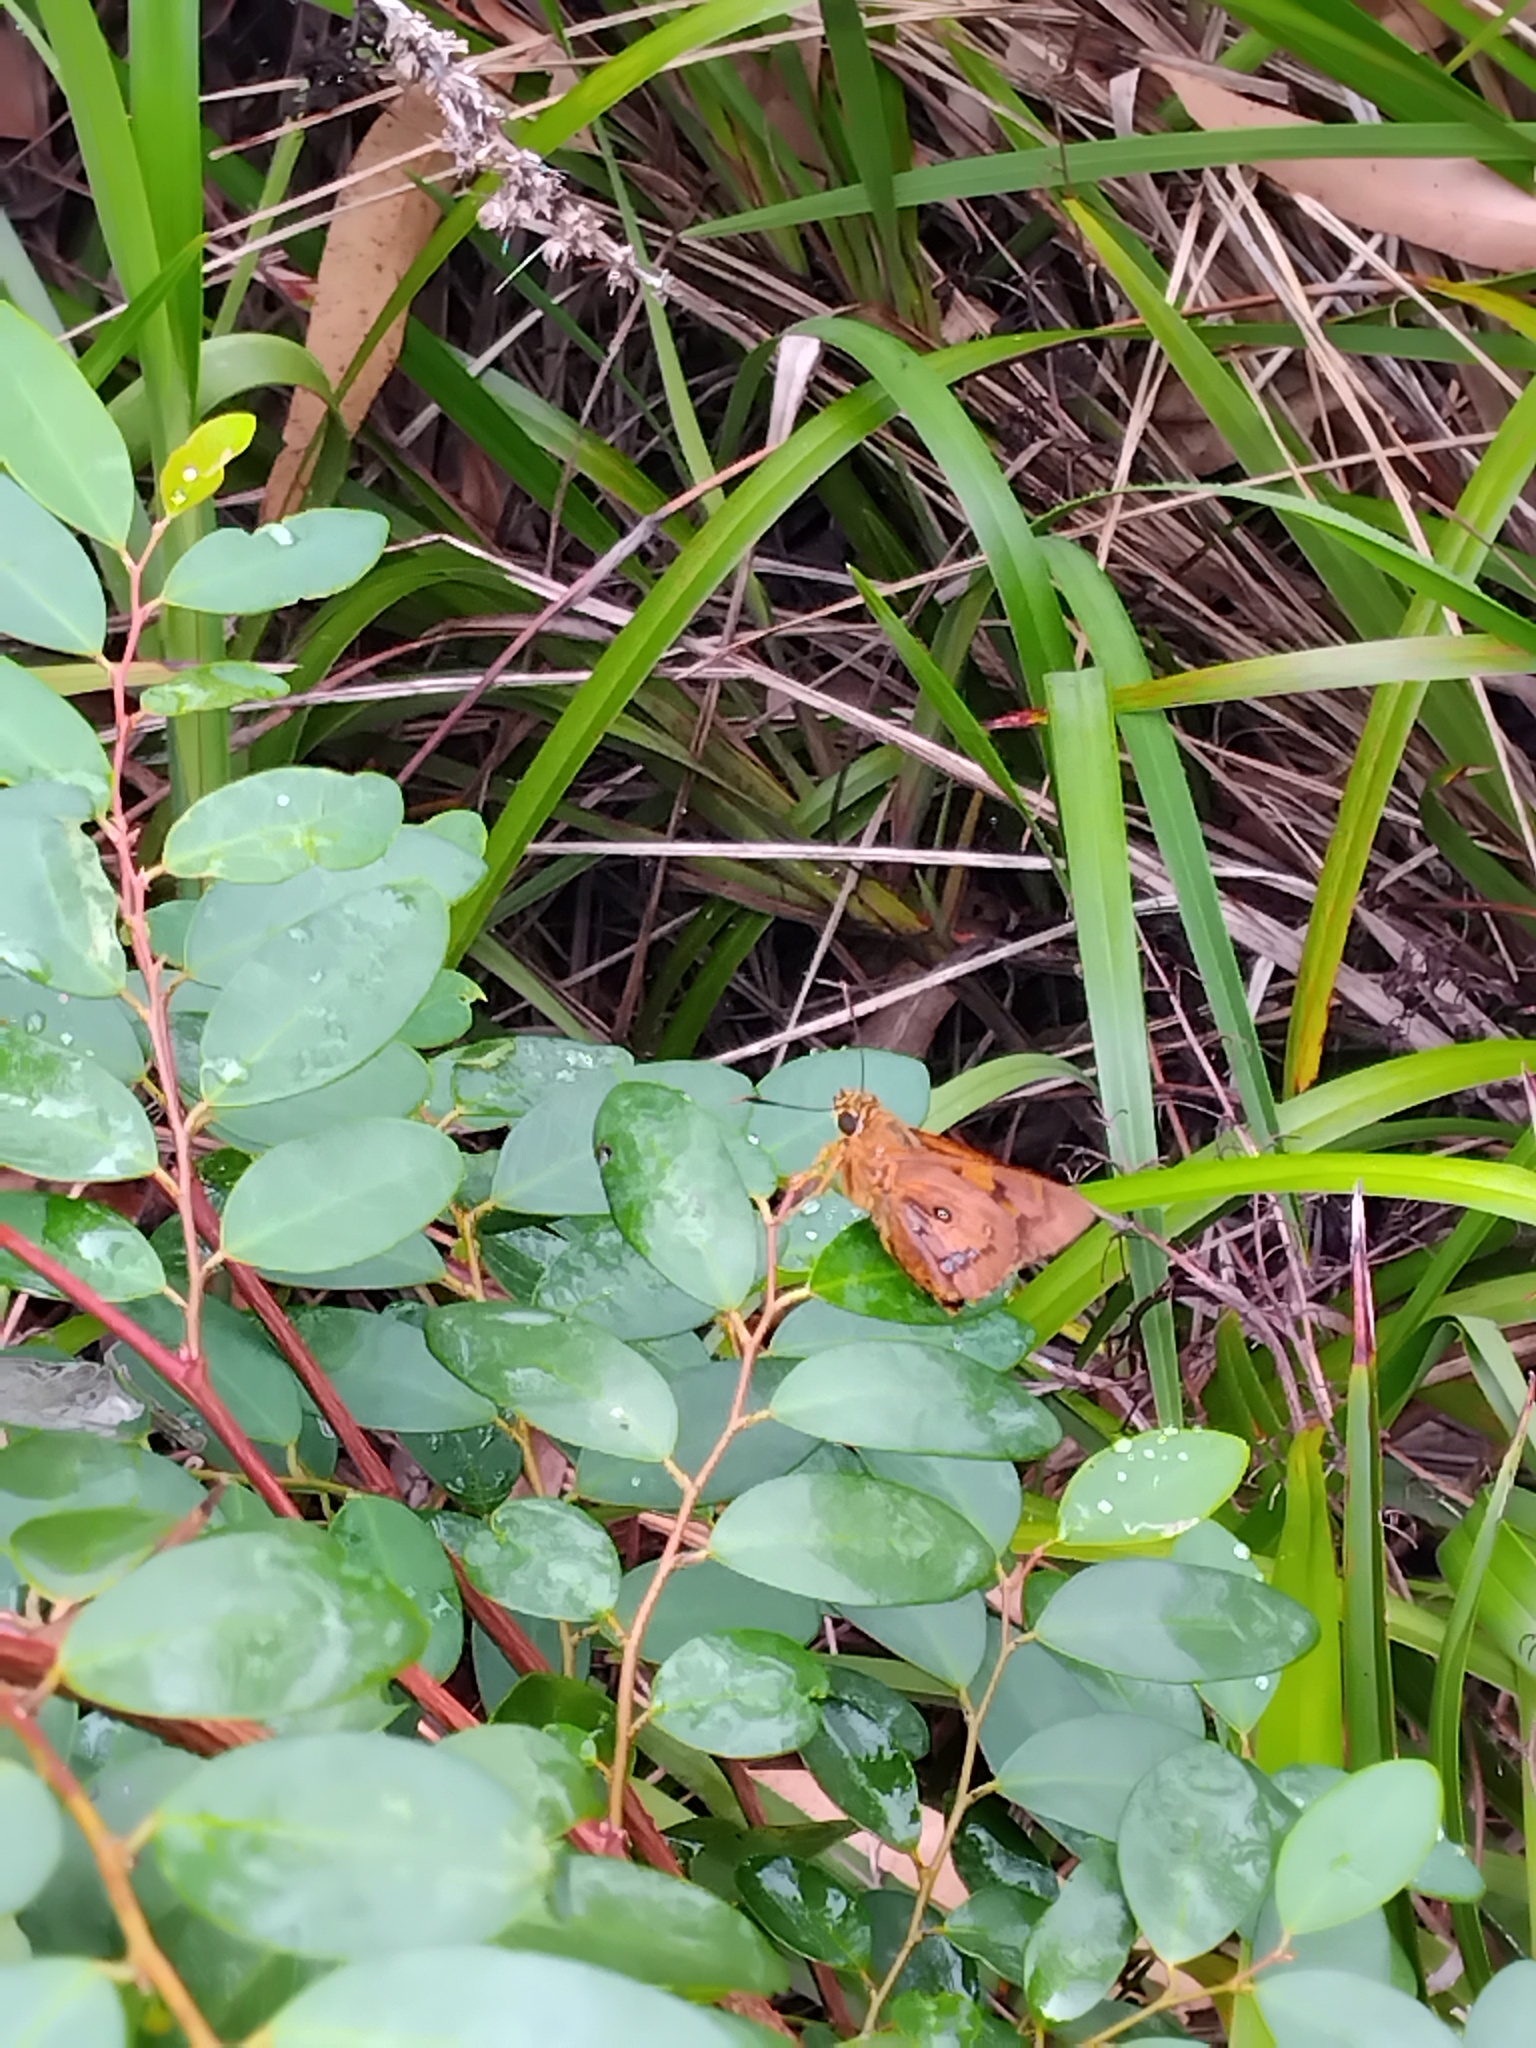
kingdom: Animalia
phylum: Arthropoda
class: Insecta
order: Lepidoptera
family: Hesperiidae
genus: Trapezites
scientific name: Trapezites symmomus
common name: Splendid ochre
